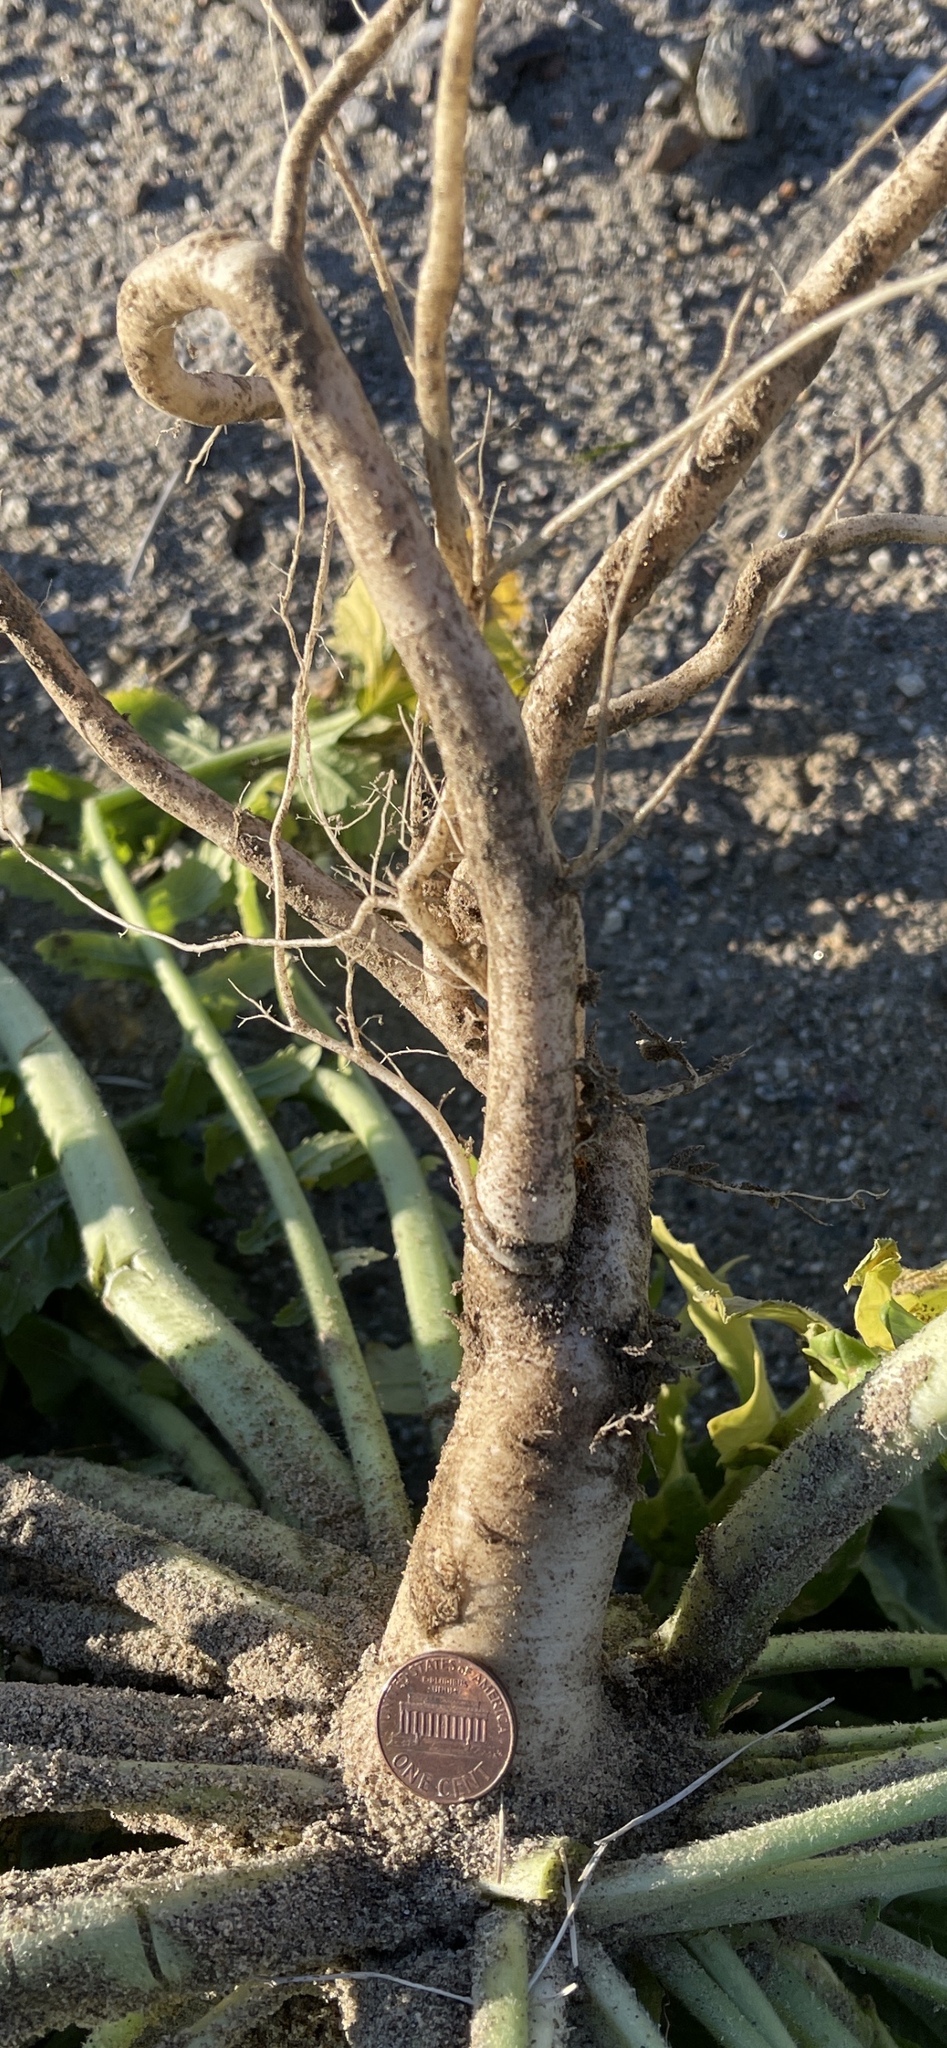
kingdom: Plantae
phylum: Tracheophyta
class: Magnoliopsida
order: Brassicales
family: Brassicaceae
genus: Brassica
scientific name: Brassica tournefortii
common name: Pale cabbage
